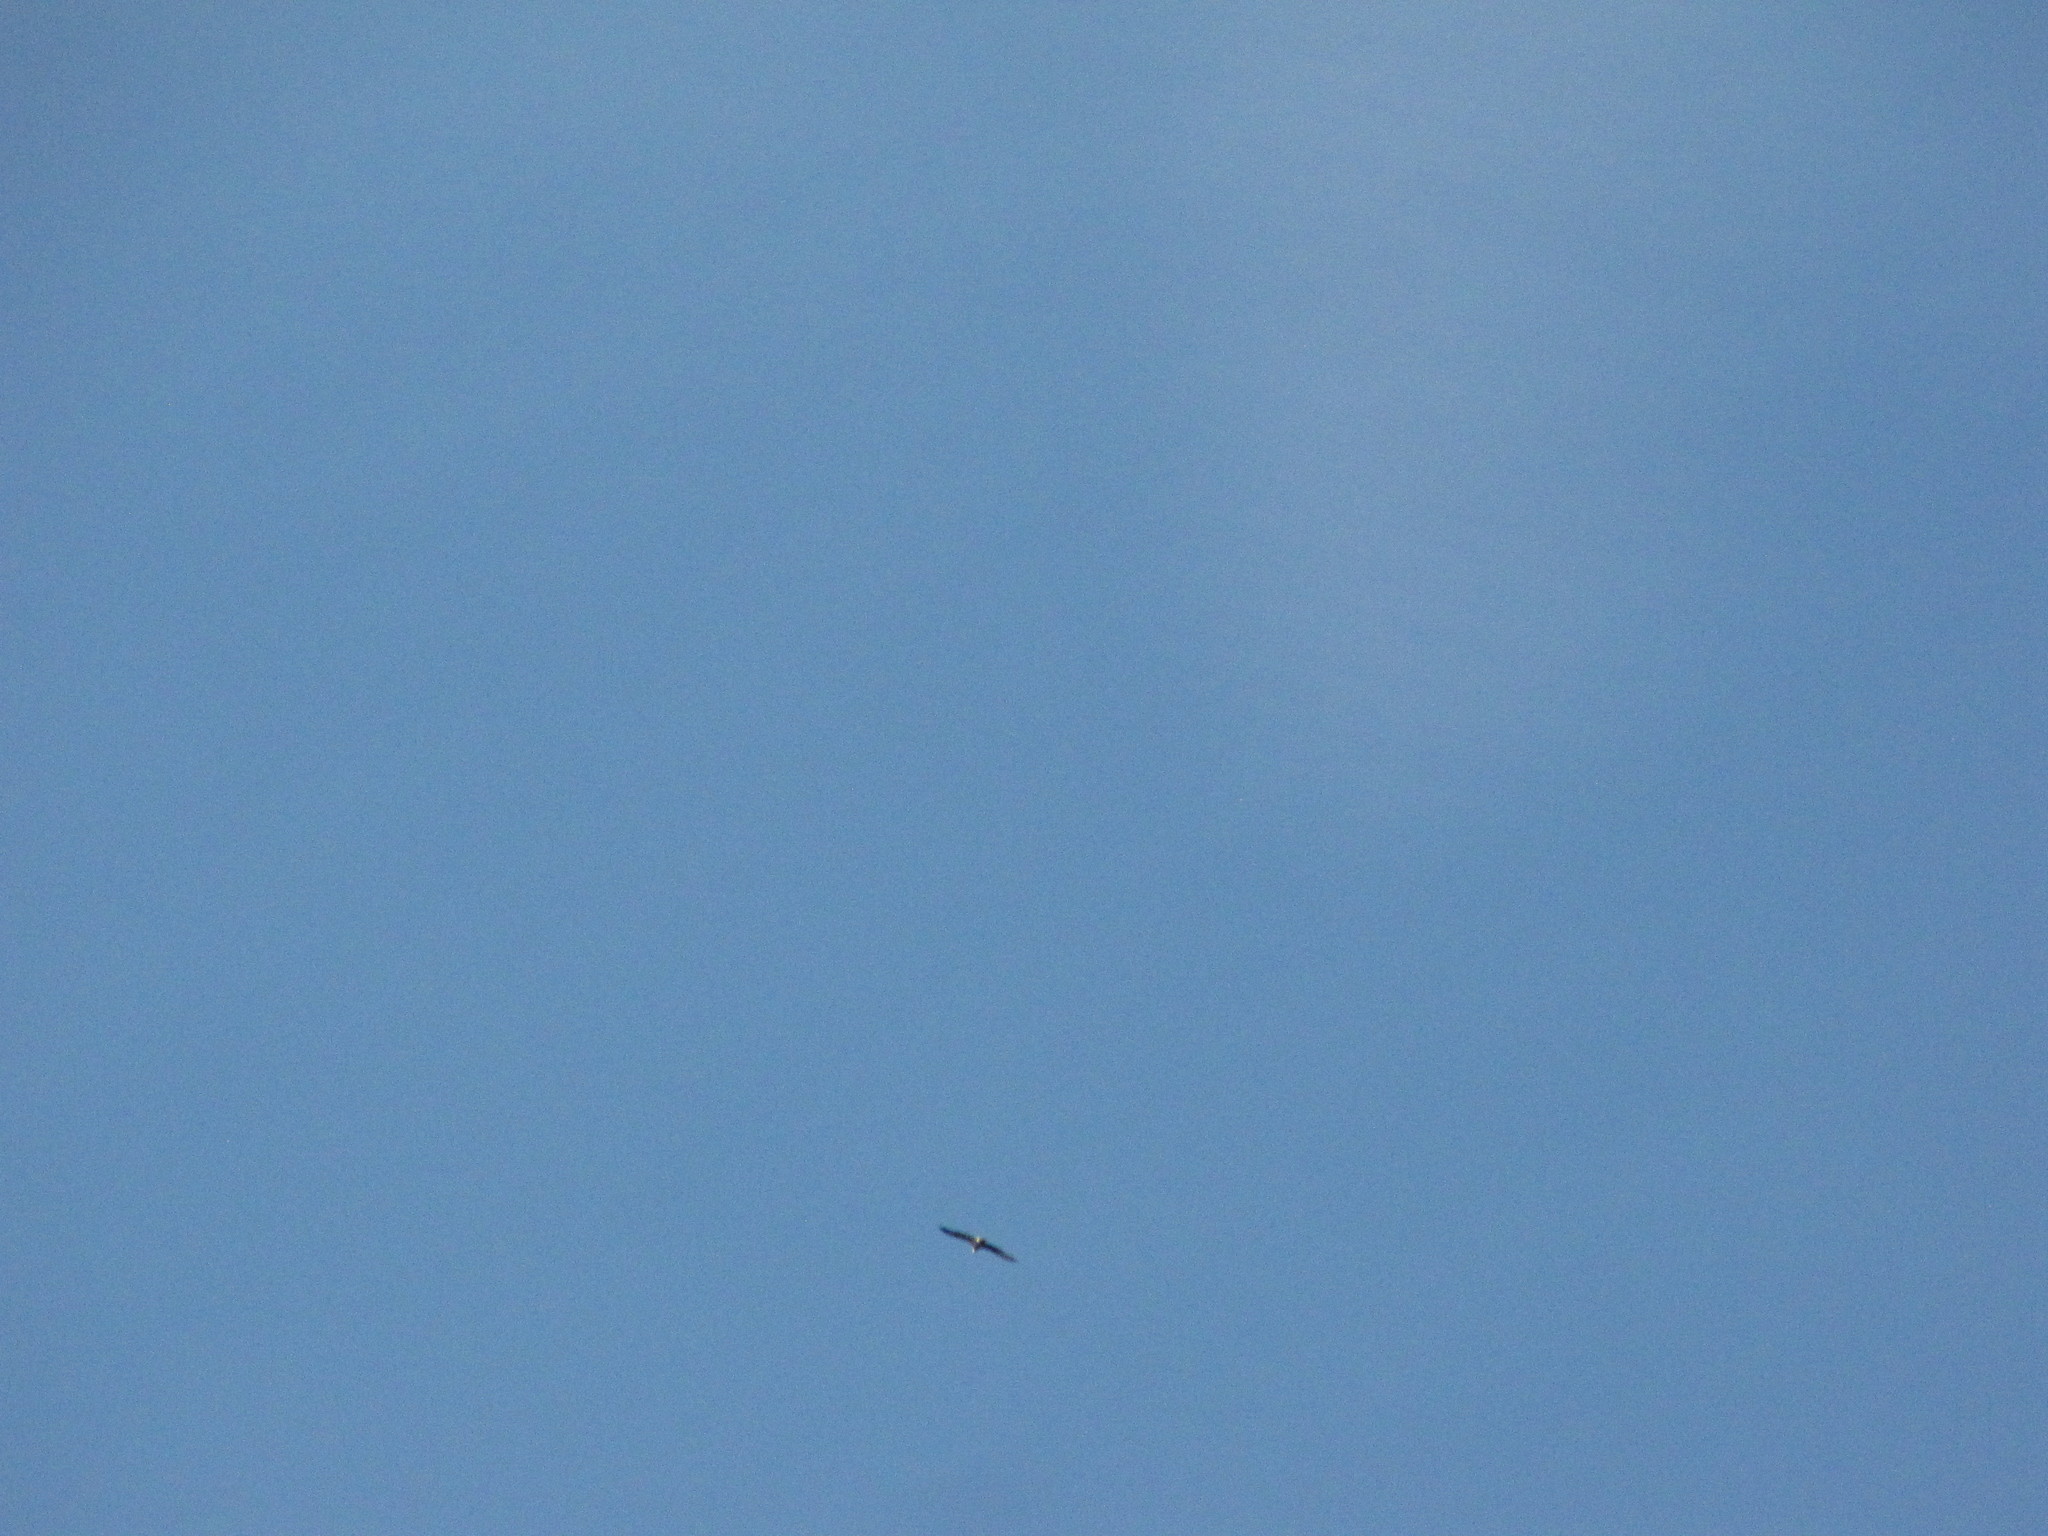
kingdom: Animalia
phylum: Chordata
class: Aves
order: Accipitriformes
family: Accipitridae
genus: Haliaeetus
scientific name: Haliaeetus leucocephalus
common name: Bald eagle
